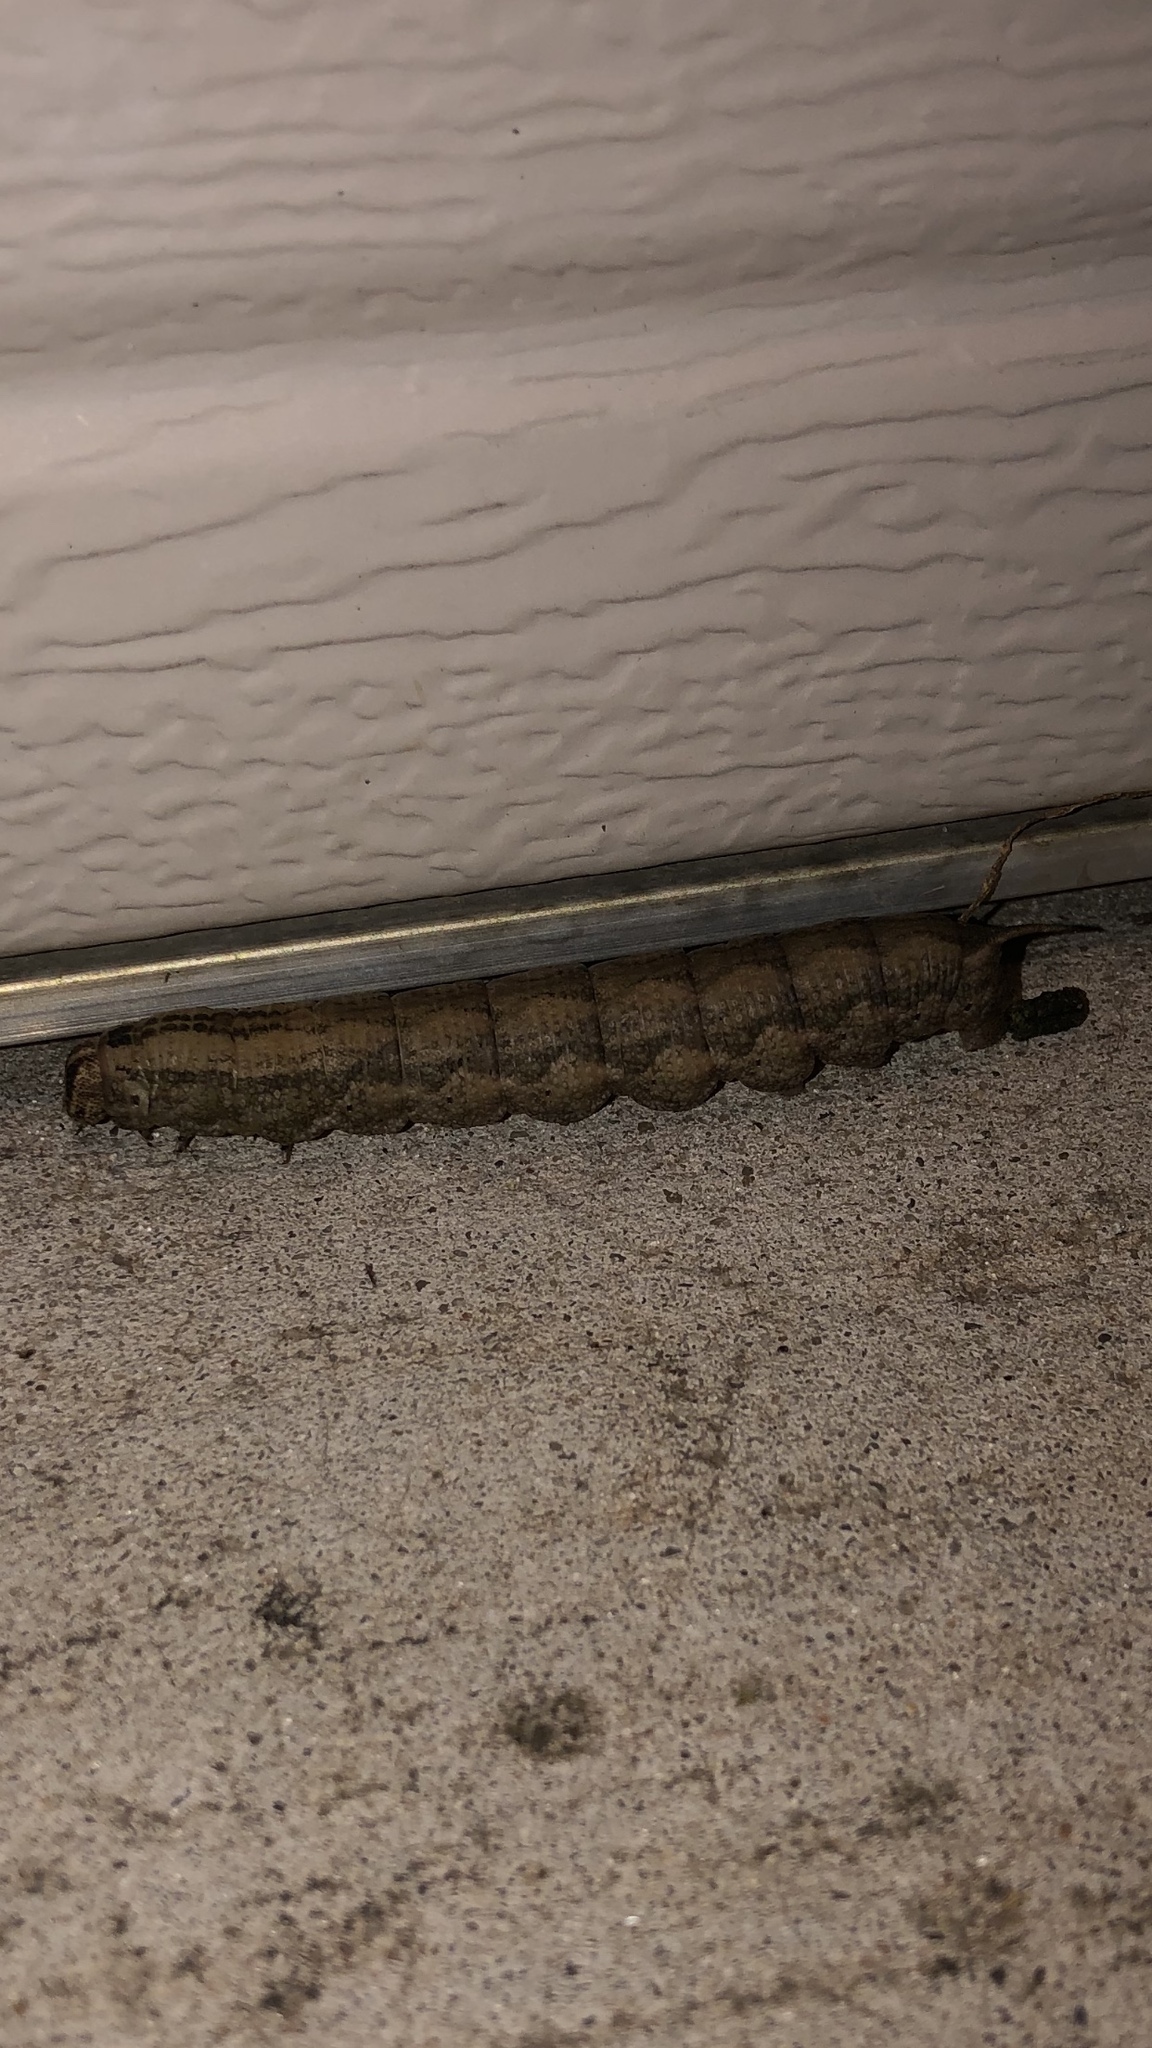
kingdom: Animalia
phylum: Arthropoda
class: Insecta
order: Lepidoptera
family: Sphingidae
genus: Ceratomia
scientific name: Ceratomia hageni
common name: Hagen's sphinx
